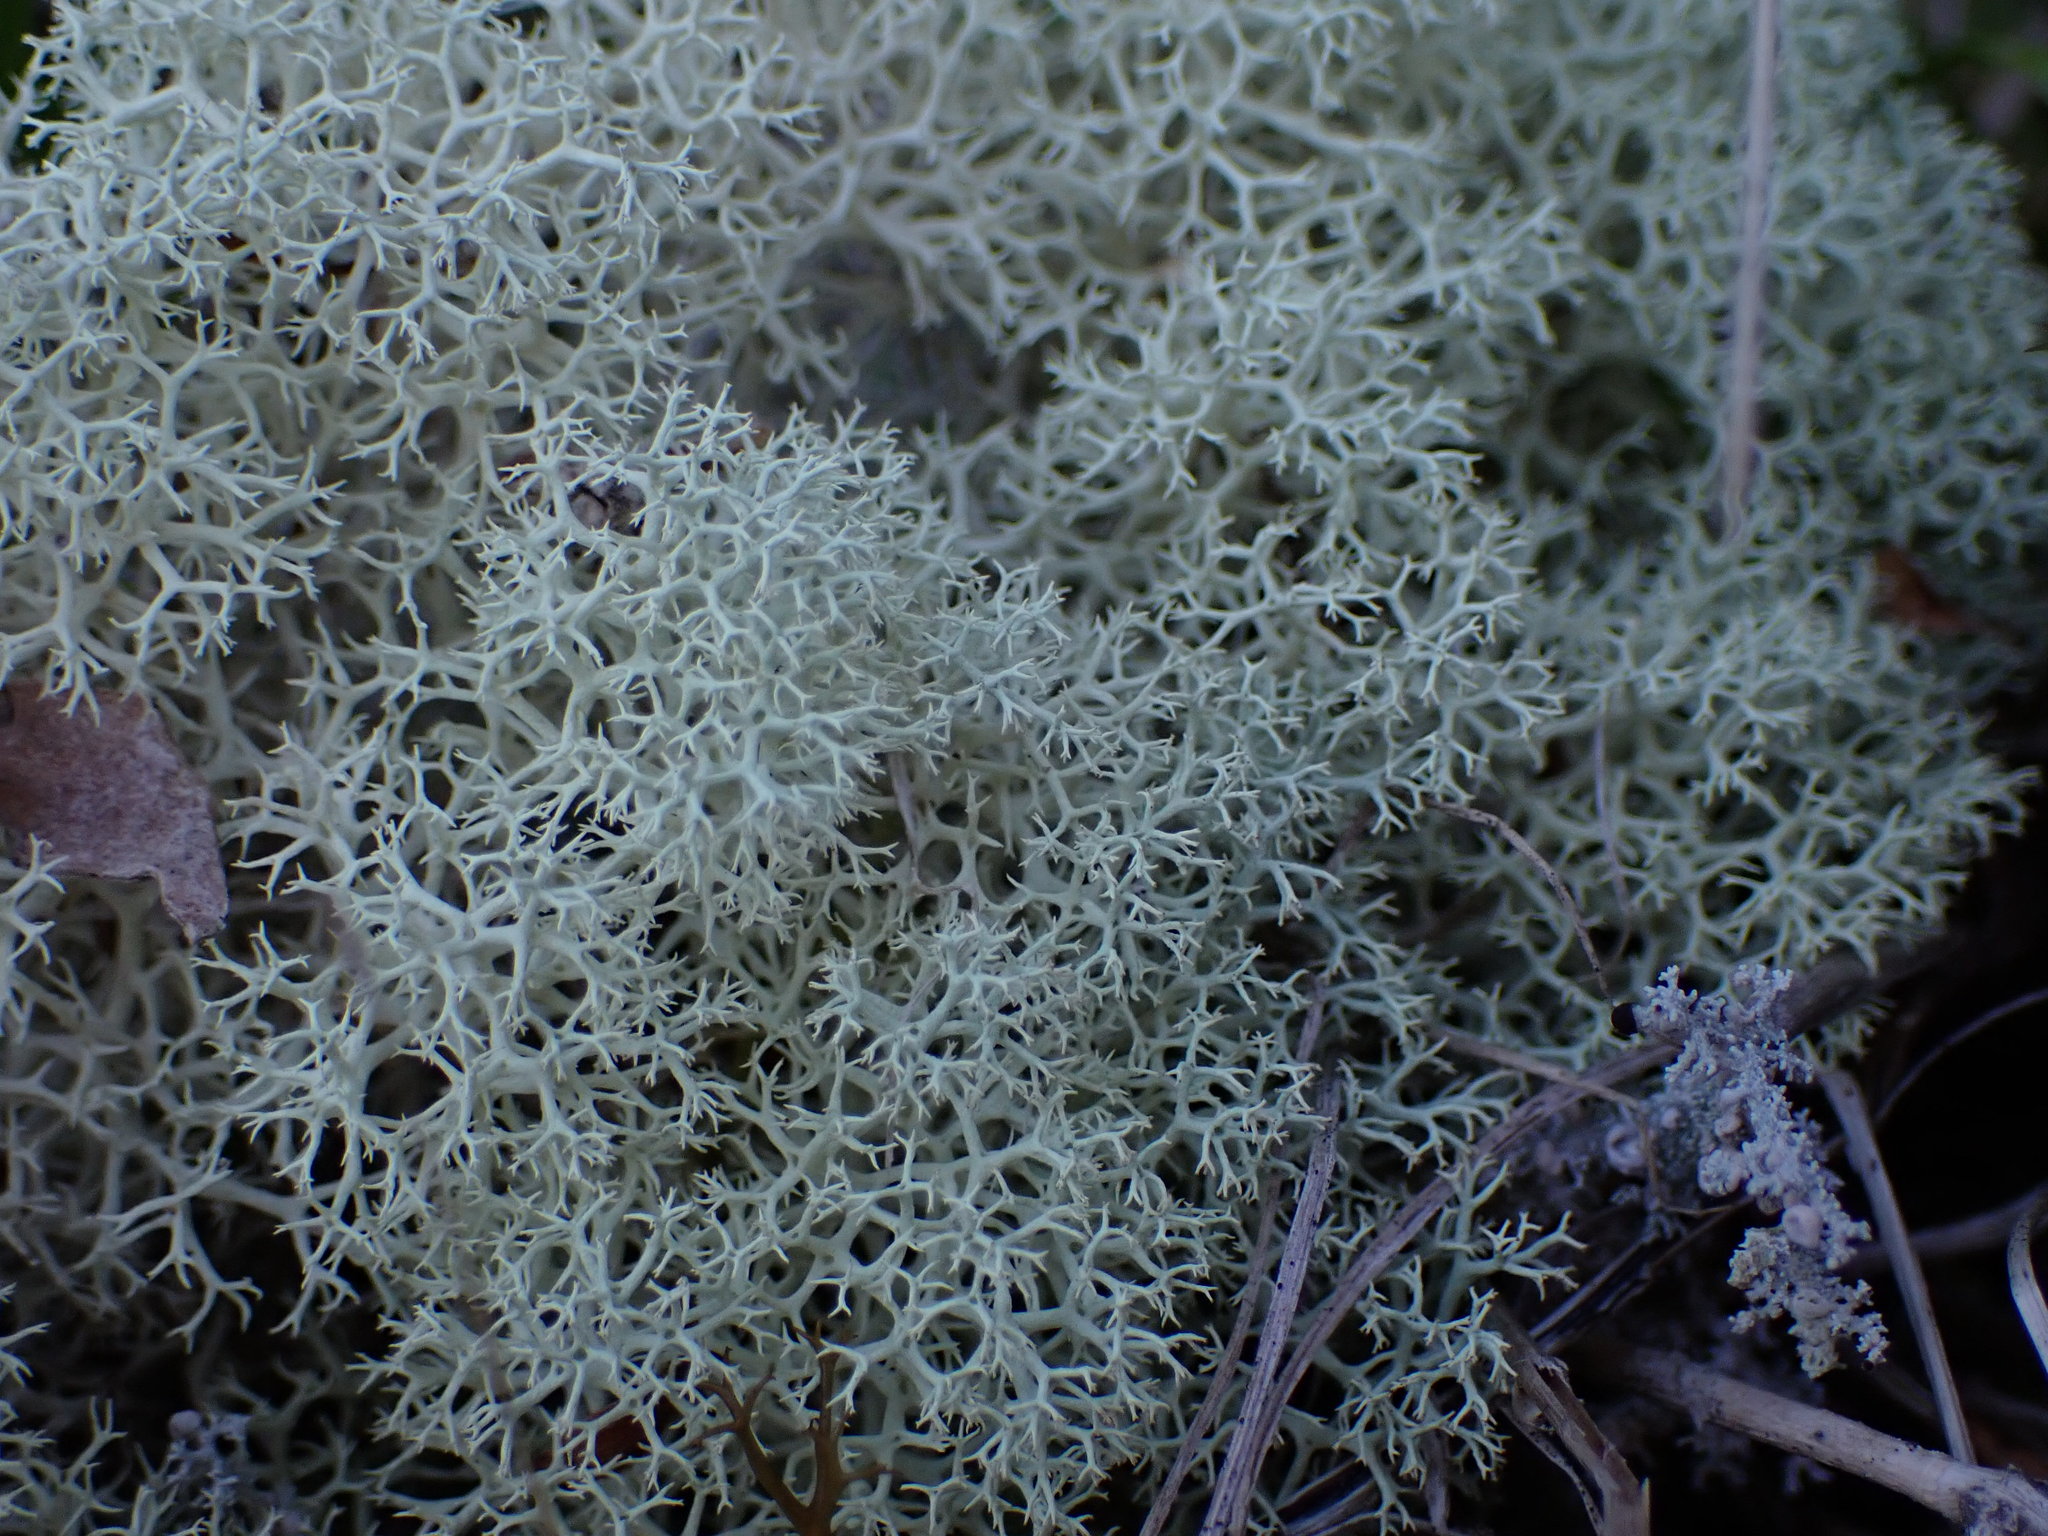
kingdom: Fungi
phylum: Ascomycota
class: Lecanoromycetes
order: Lecanorales
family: Cladoniaceae
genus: Cladia
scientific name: Cladia aggregata
